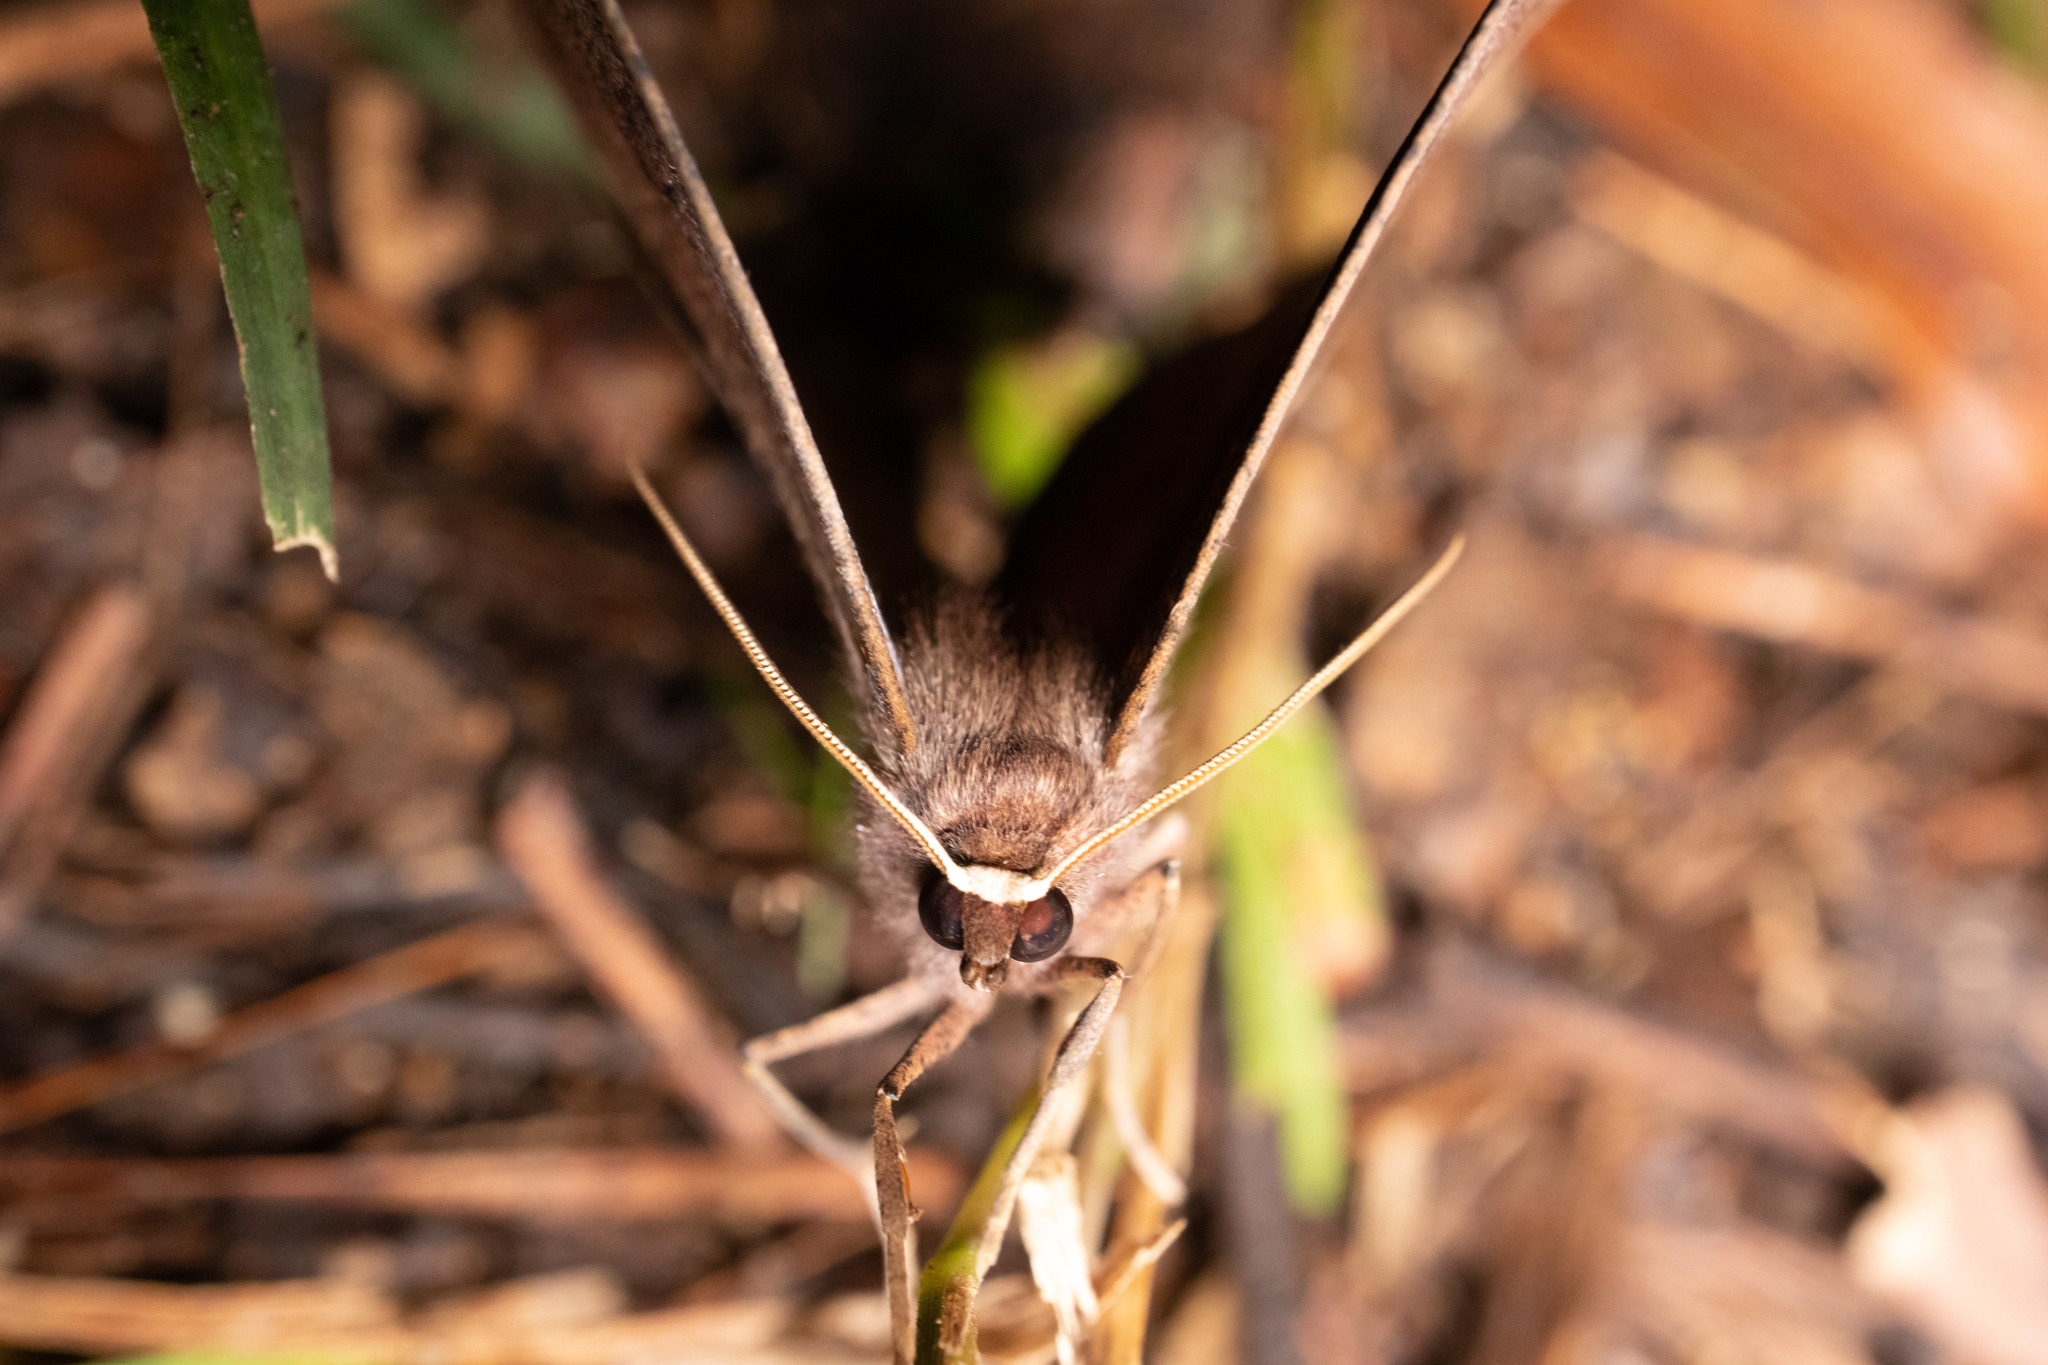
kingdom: Animalia
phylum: Arthropoda
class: Insecta
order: Lepidoptera
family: Geometridae
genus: Eutrapela
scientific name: Eutrapela clemataria
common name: Curved-toothed geometer
